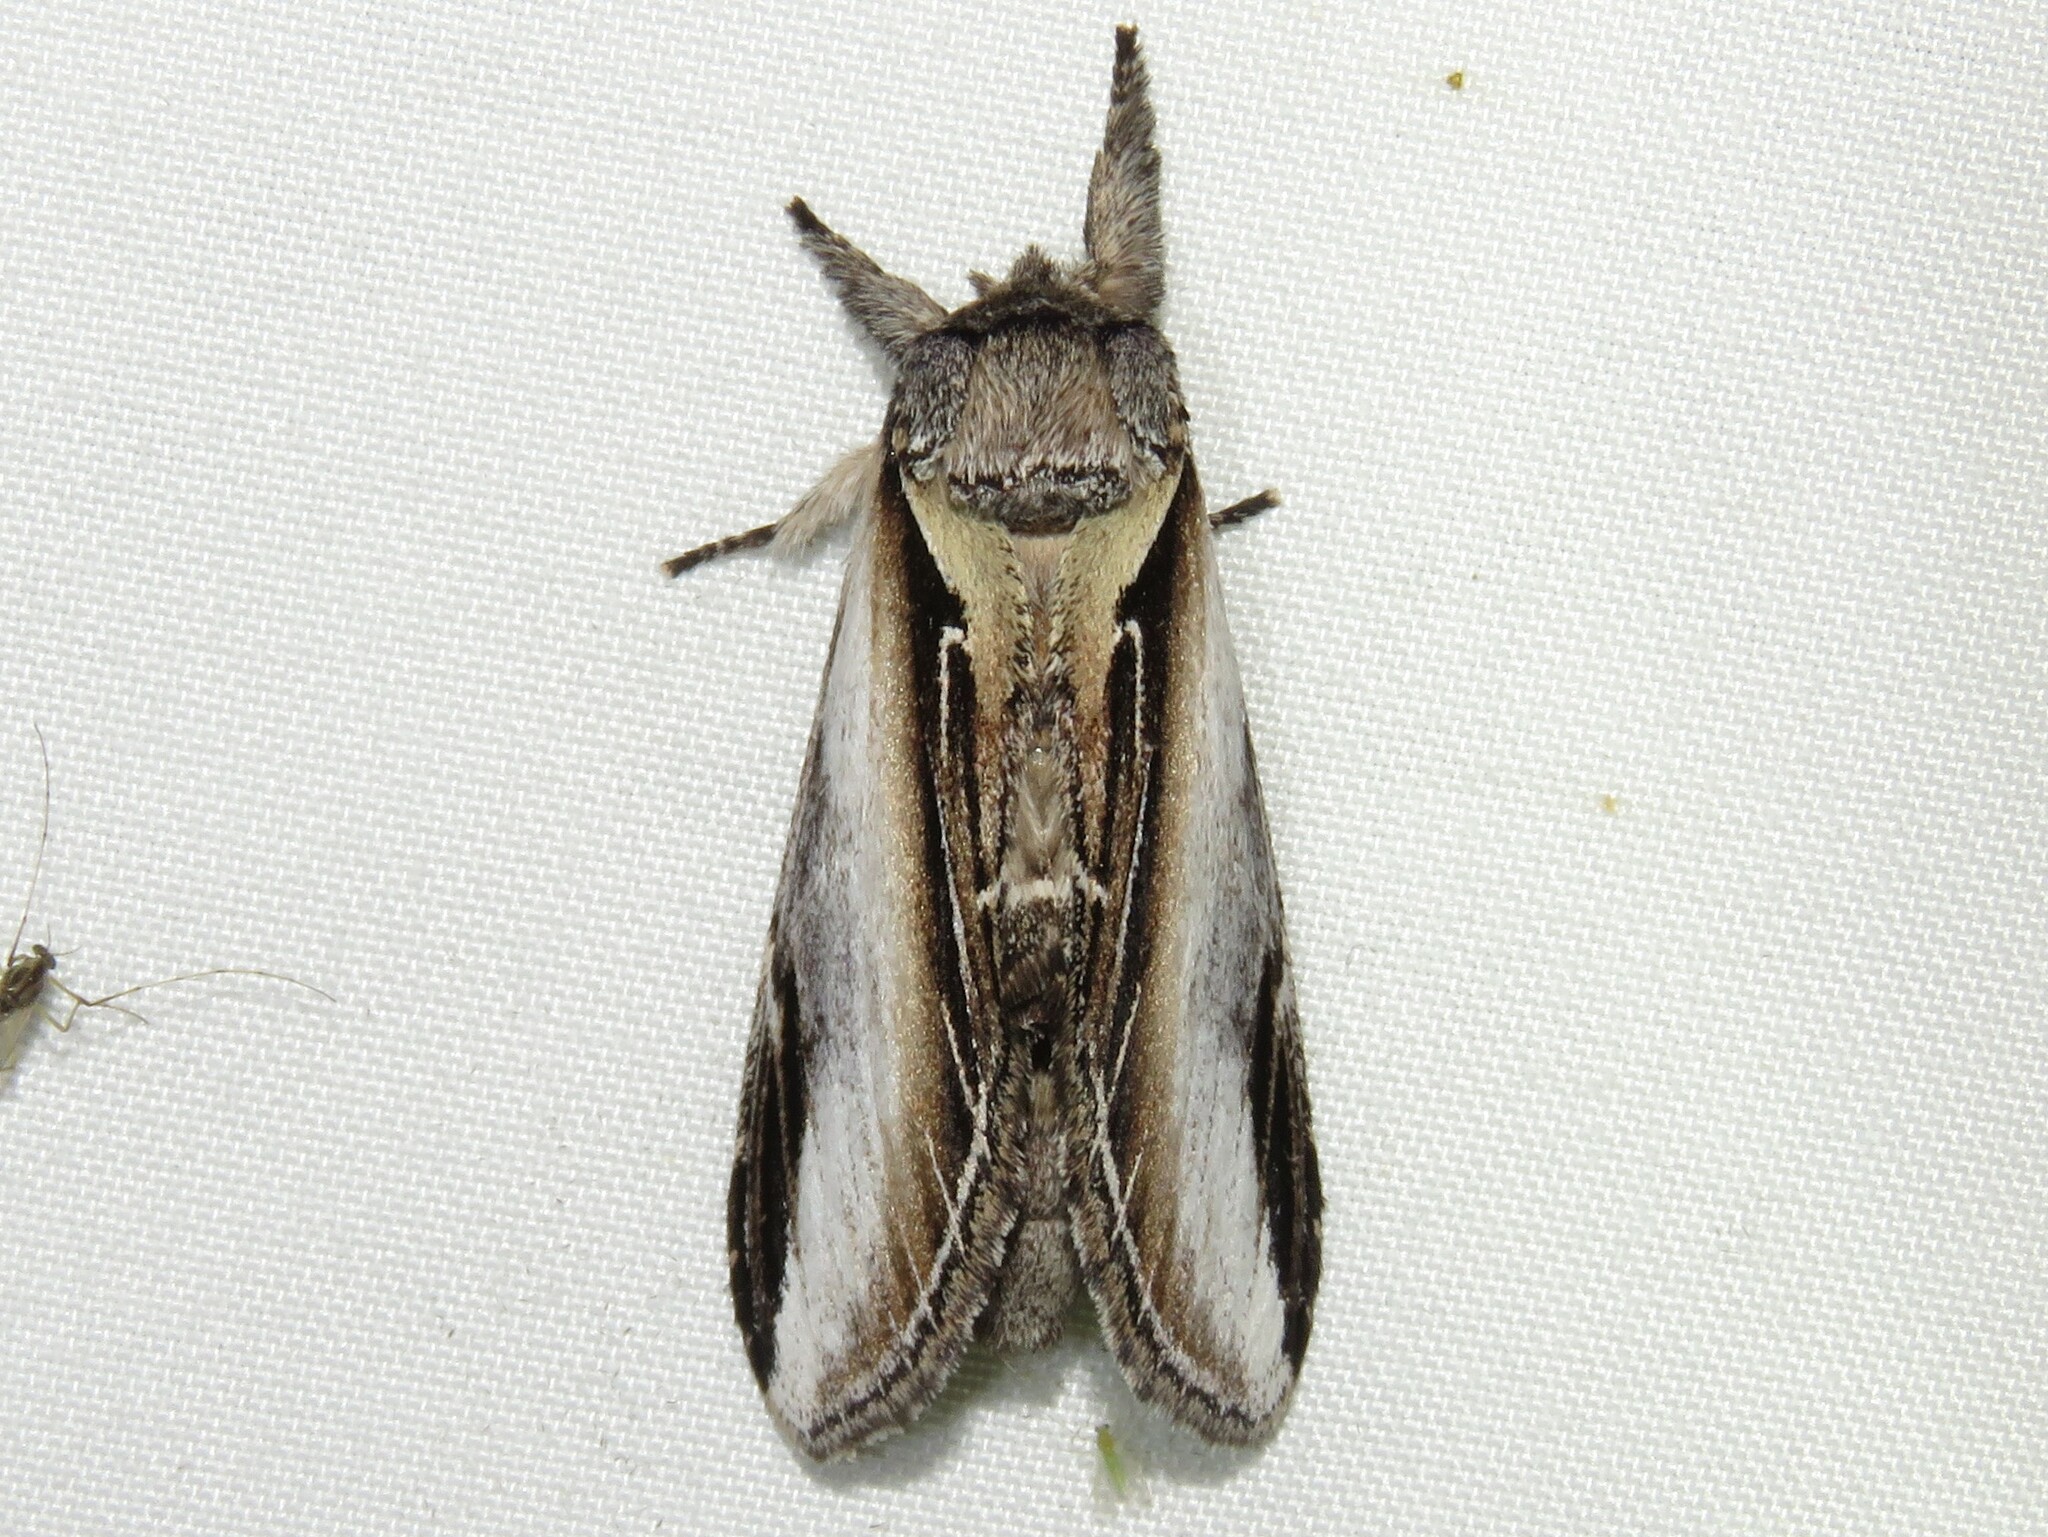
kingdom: Animalia
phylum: Arthropoda
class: Insecta
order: Lepidoptera
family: Notodontidae
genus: Pheosia
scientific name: Pheosia rimosa
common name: Black-rimmed prominent
